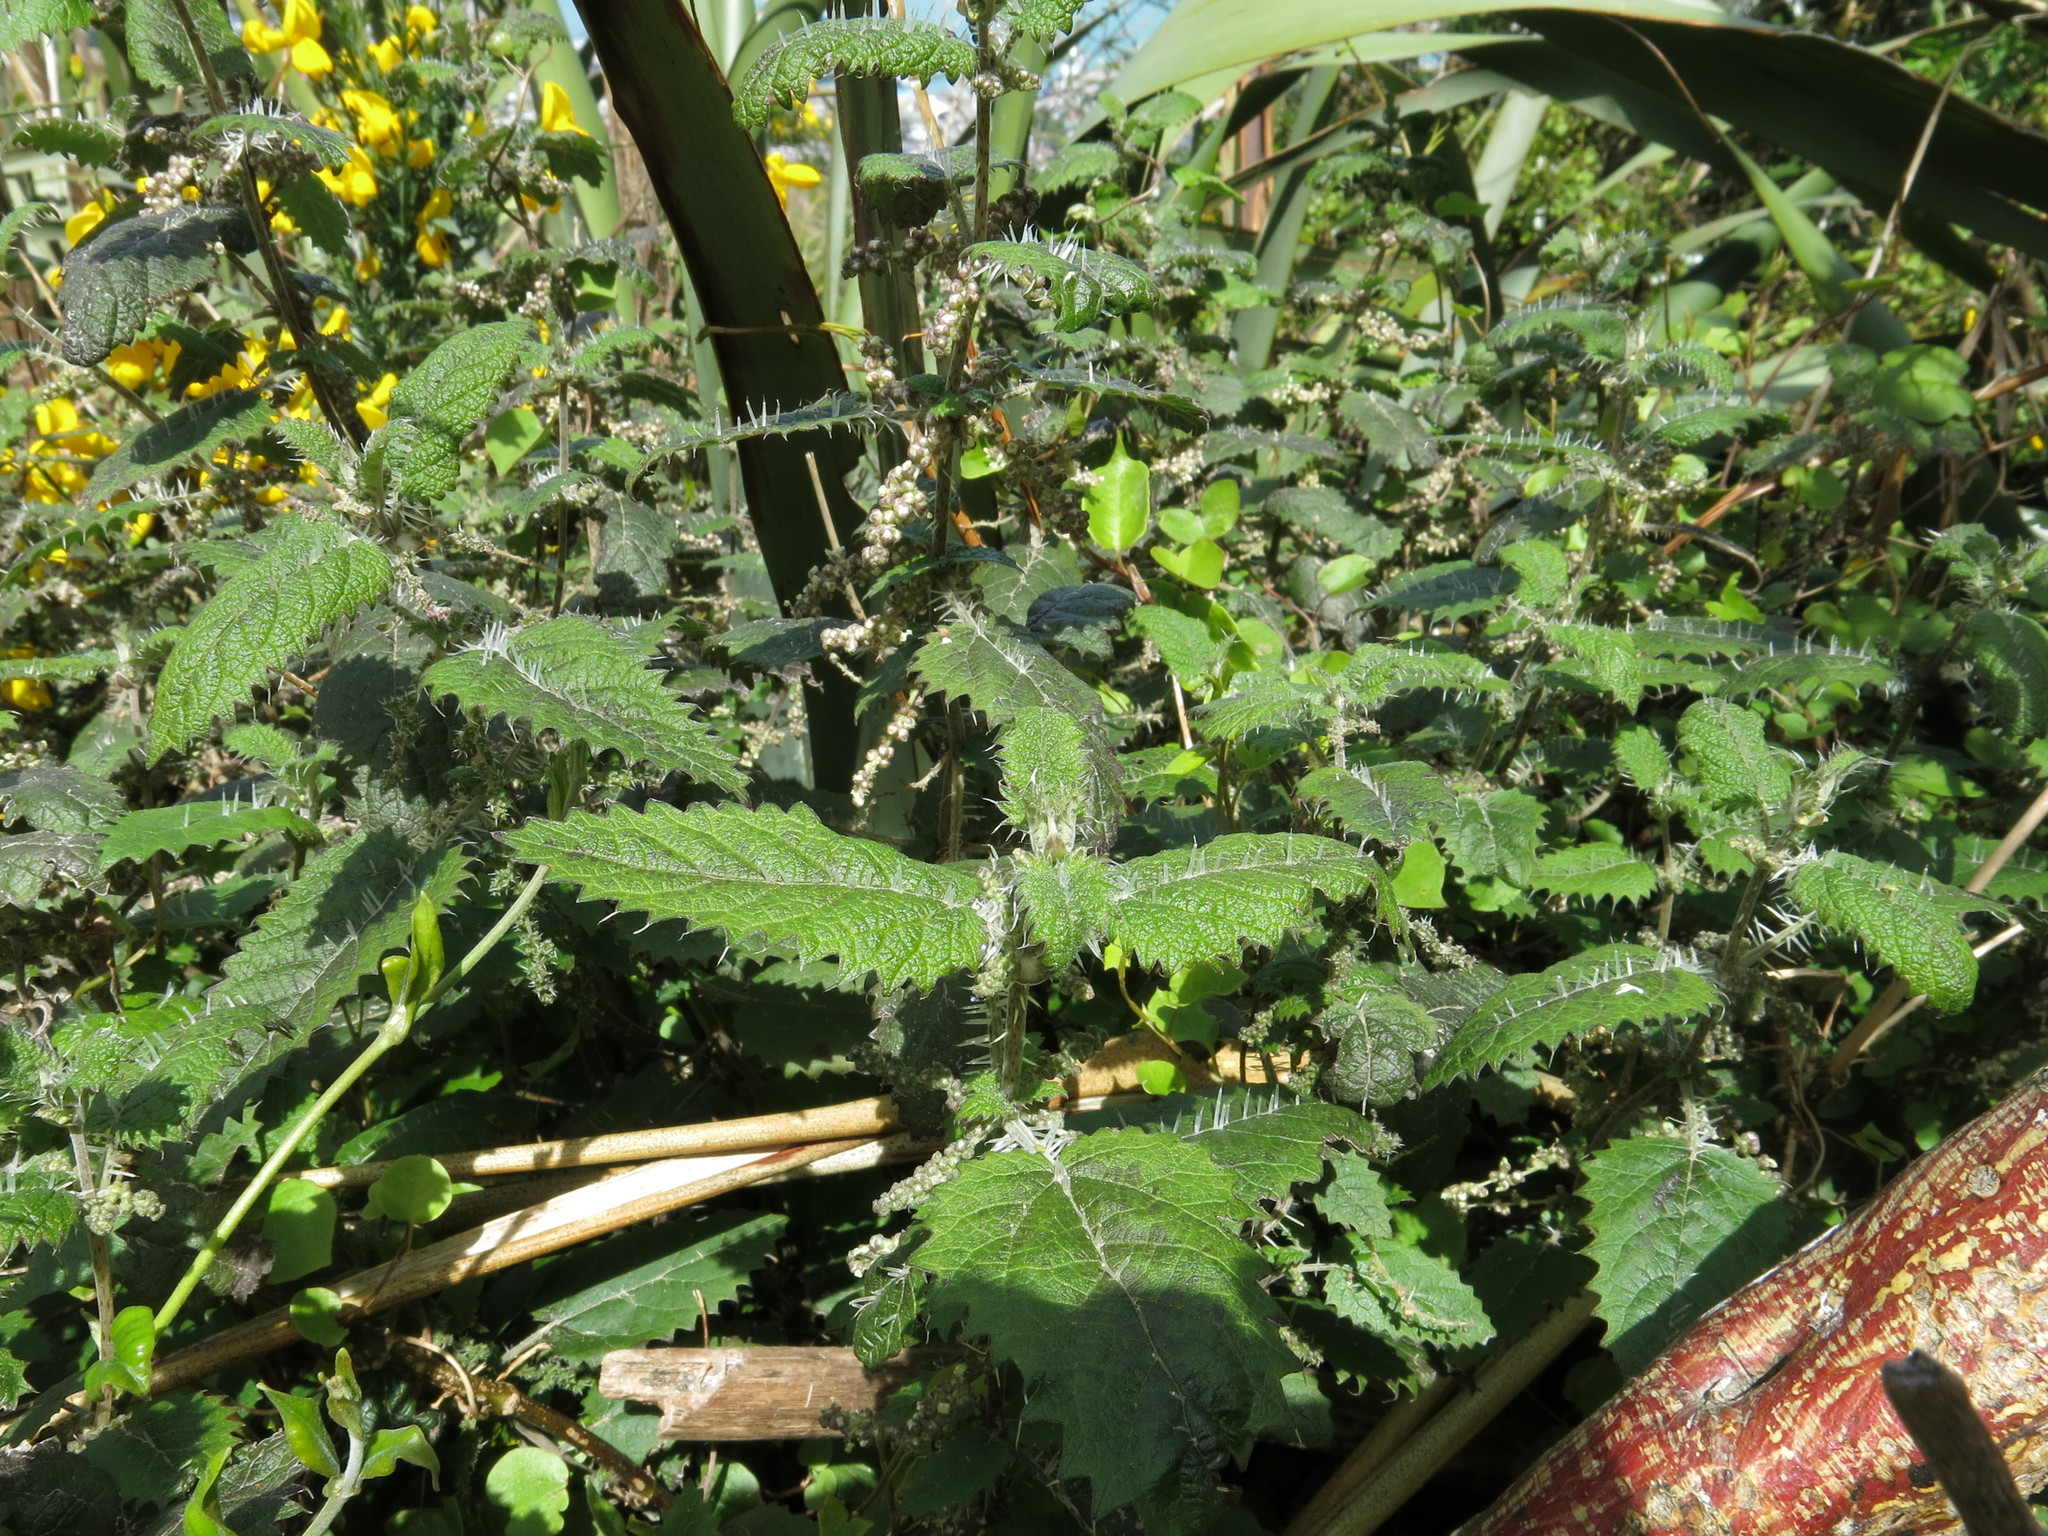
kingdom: Plantae
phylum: Tracheophyta
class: Magnoliopsida
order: Rosales
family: Urticaceae
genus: Urtica
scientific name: Urtica ferox
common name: Tree nettle
